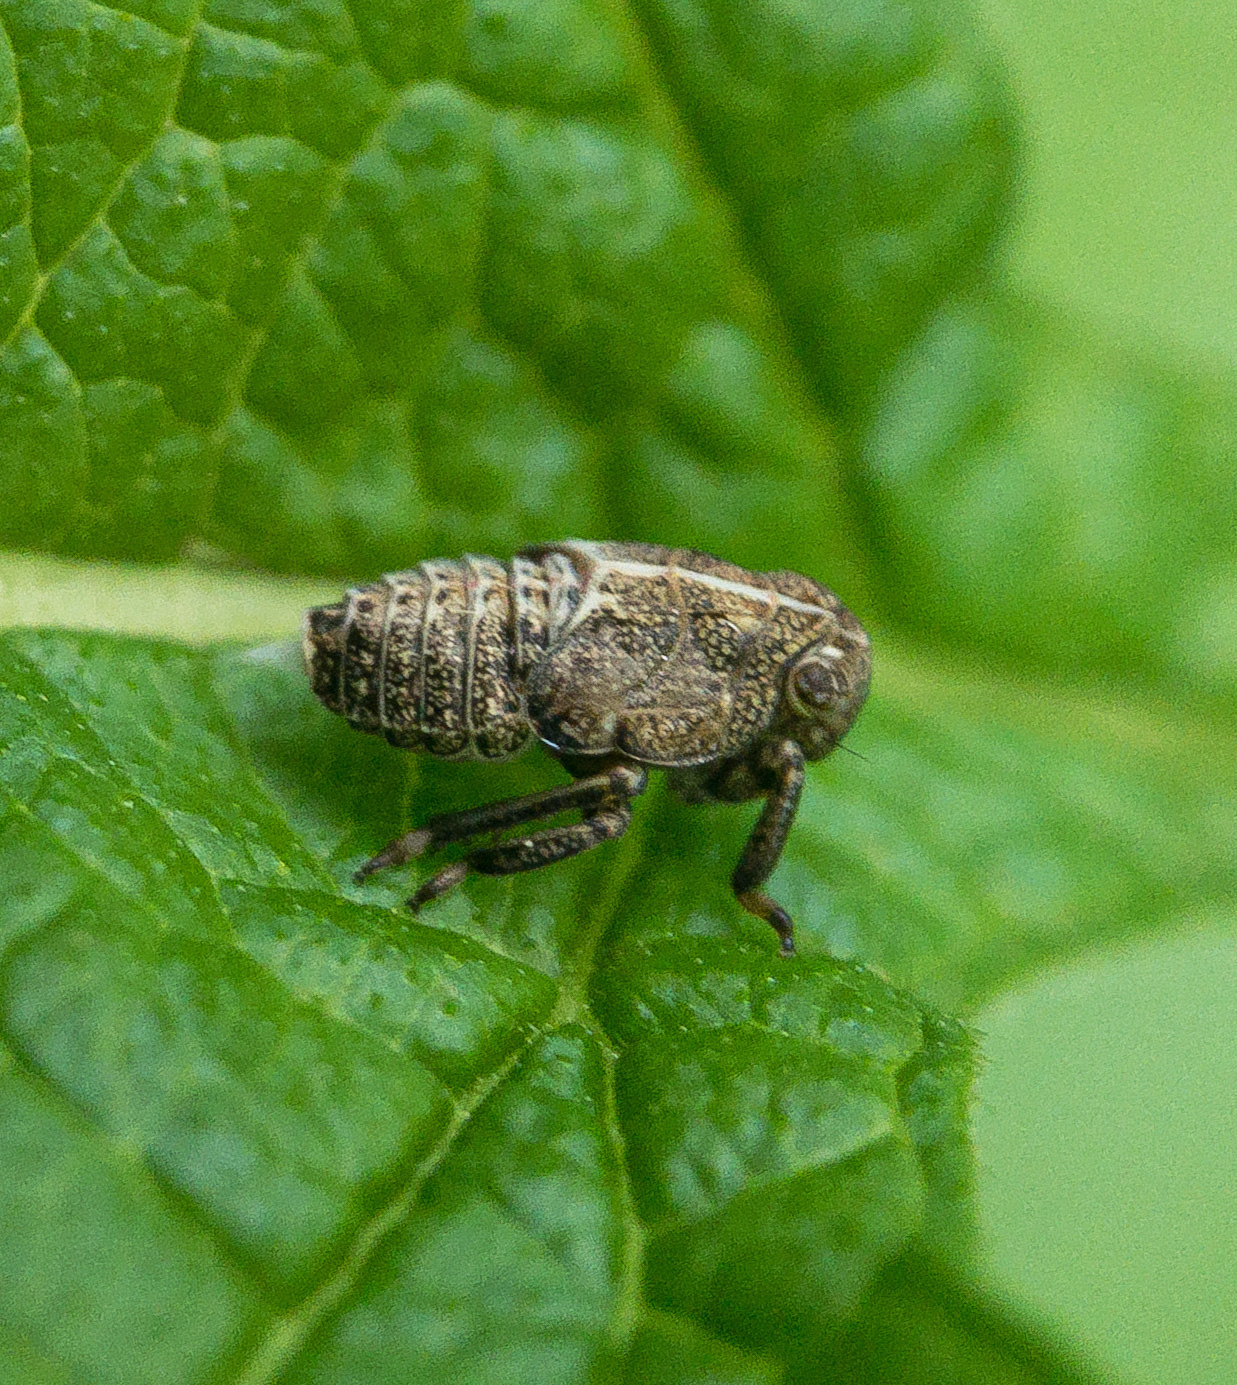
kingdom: Animalia
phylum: Arthropoda
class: Insecta
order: Hemiptera
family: Issidae
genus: Thionia
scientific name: Thionia elliptica
